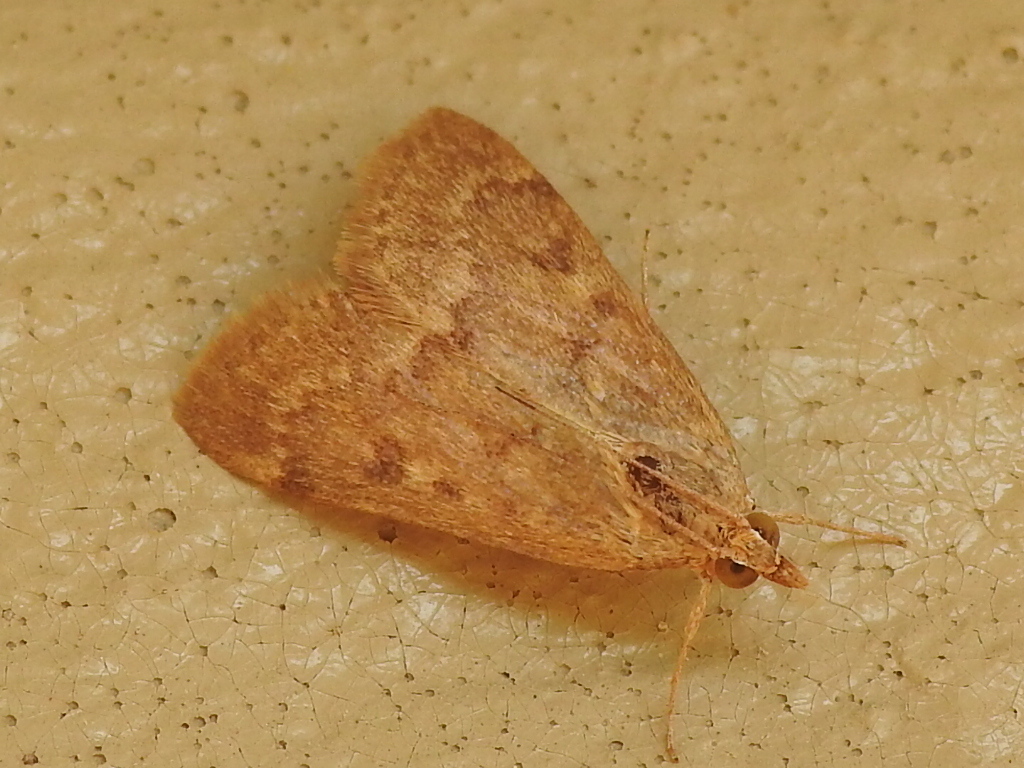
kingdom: Animalia
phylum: Arthropoda
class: Insecta
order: Lepidoptera
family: Crambidae
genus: Achyra
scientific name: Achyra rantalis
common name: Garden webworm
